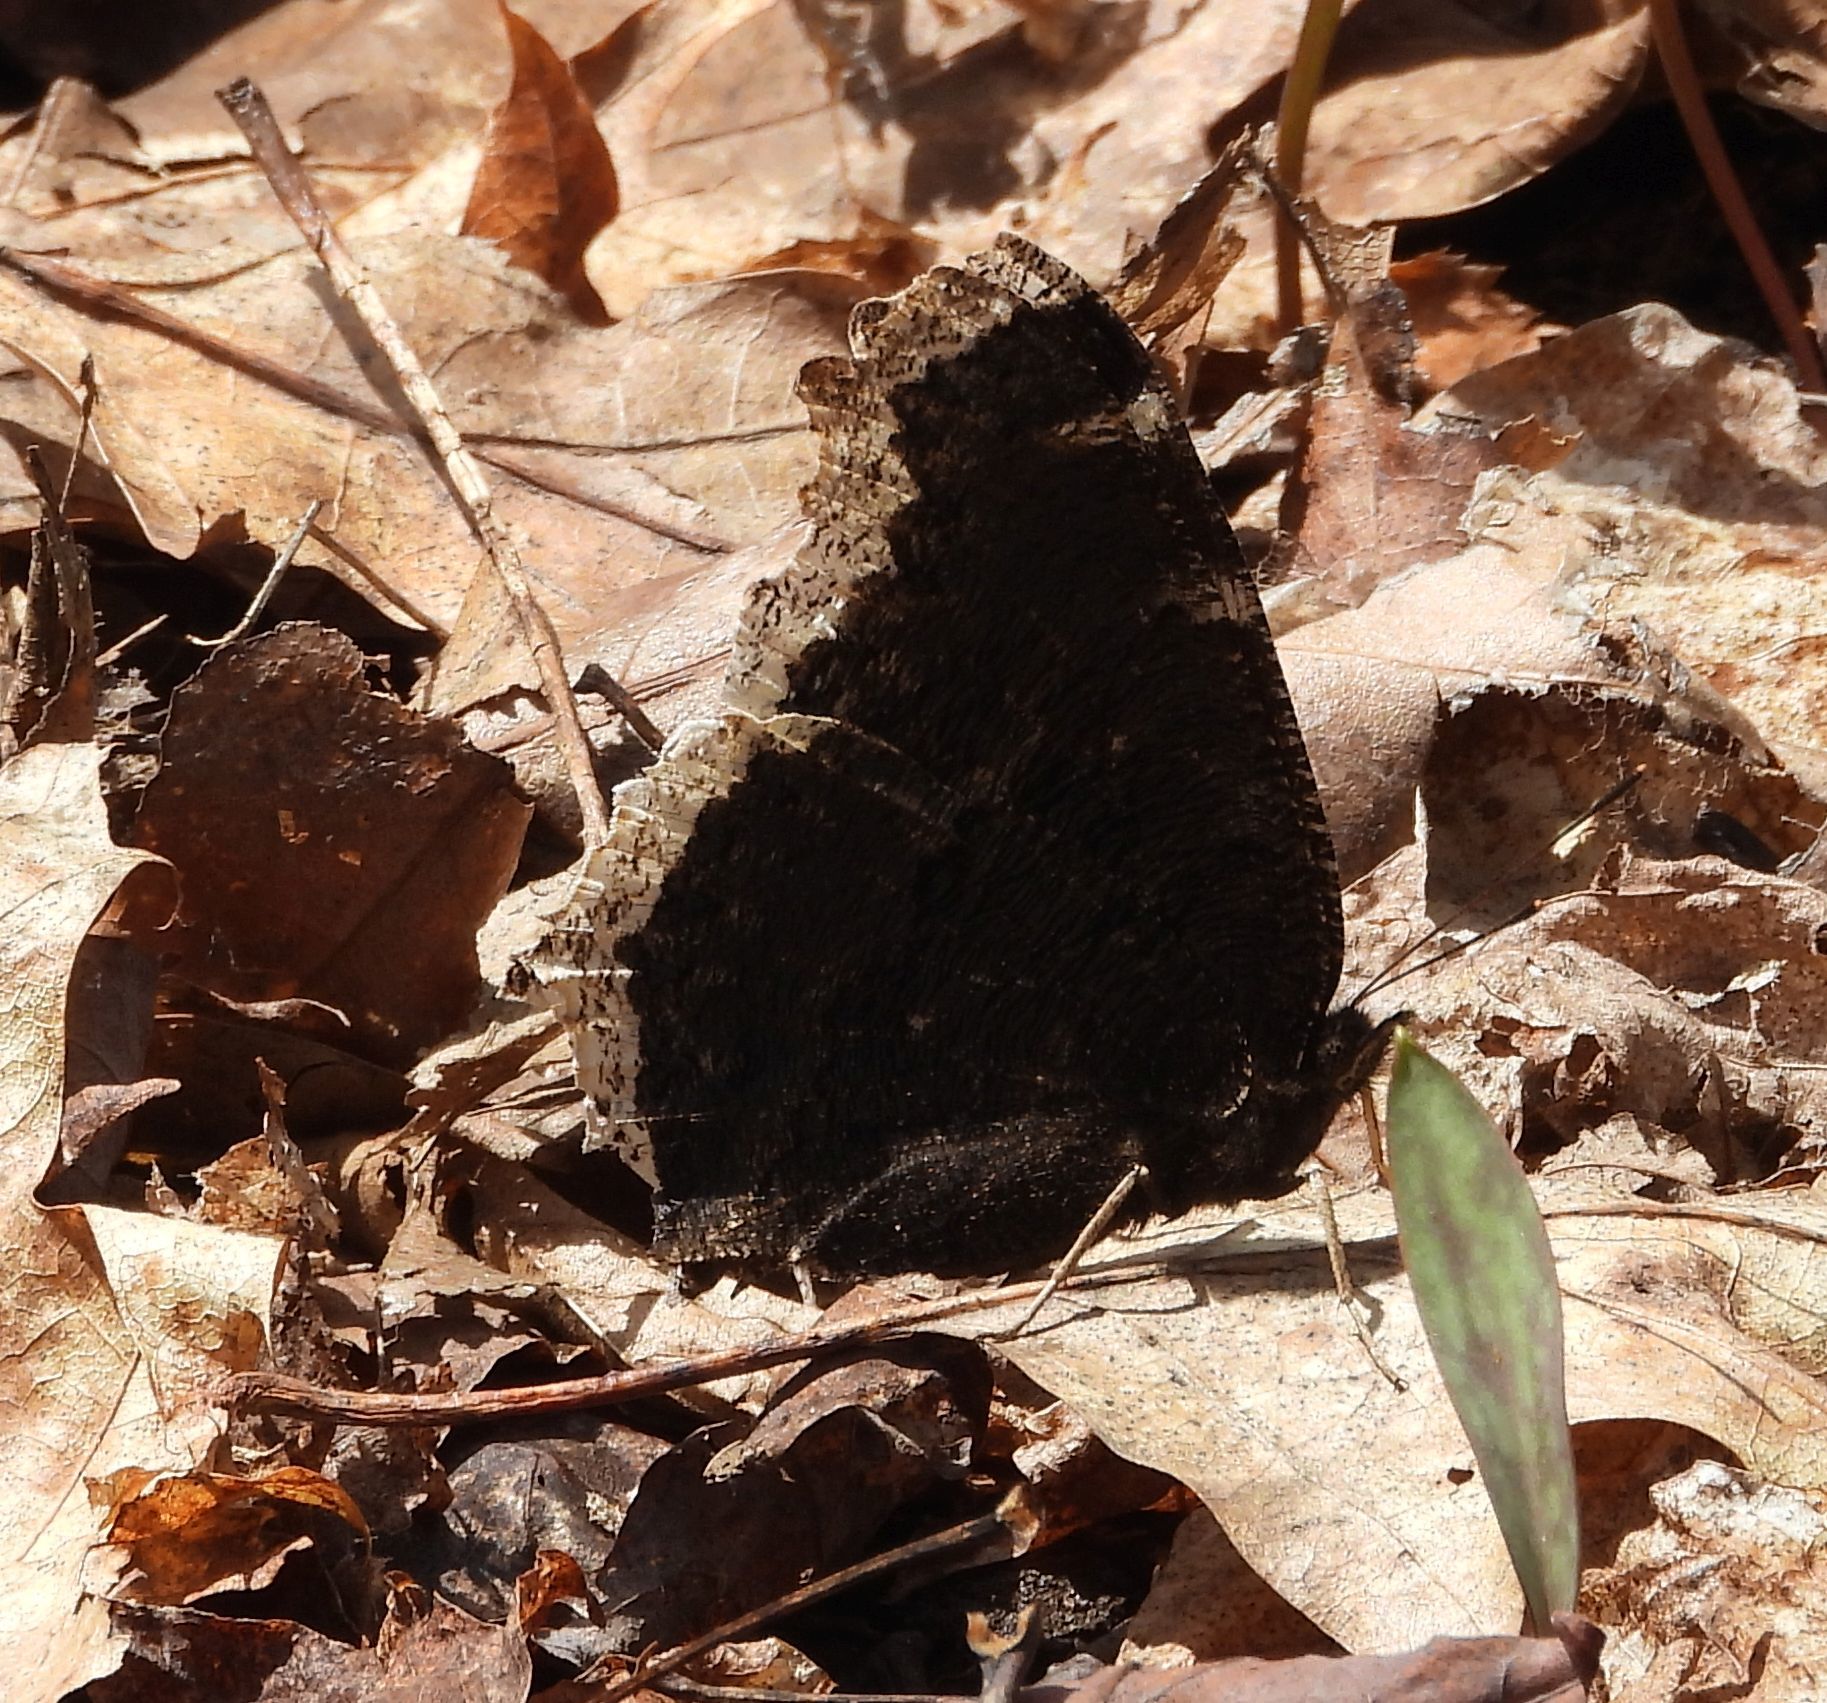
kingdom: Animalia
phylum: Arthropoda
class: Insecta
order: Lepidoptera
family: Nymphalidae
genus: Nymphalis
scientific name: Nymphalis antiopa
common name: Camberwell beauty
